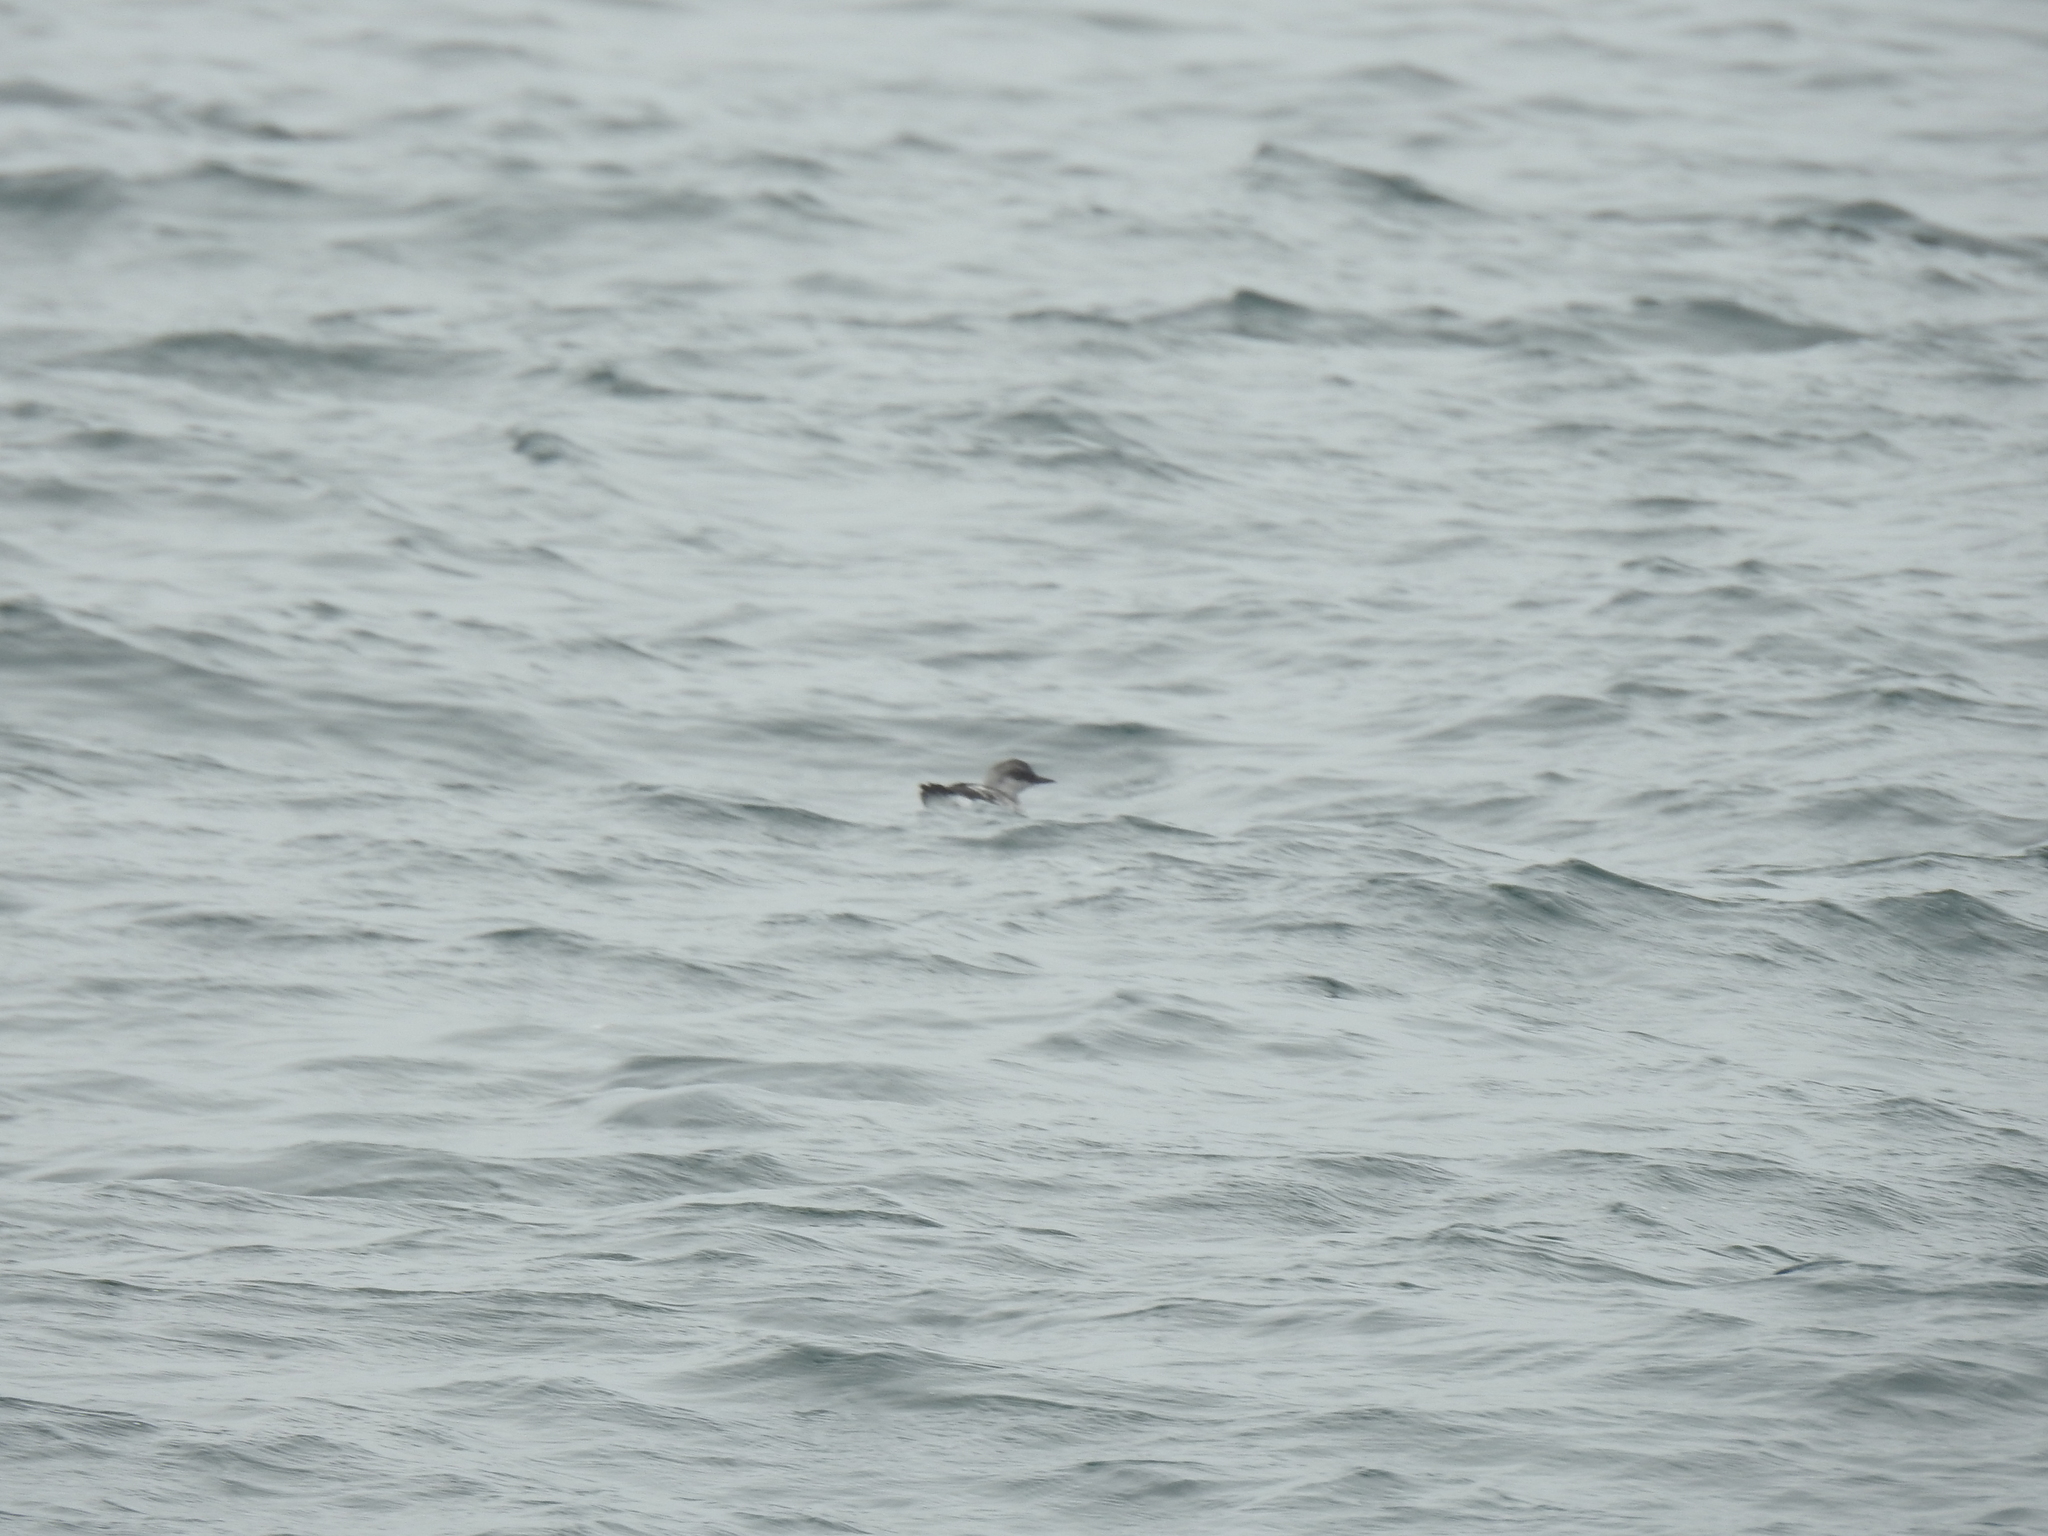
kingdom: Animalia
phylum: Chordata
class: Aves
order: Charadriiformes
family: Alcidae
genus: Cepphus
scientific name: Cepphus columba
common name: Pigeon guillemot
